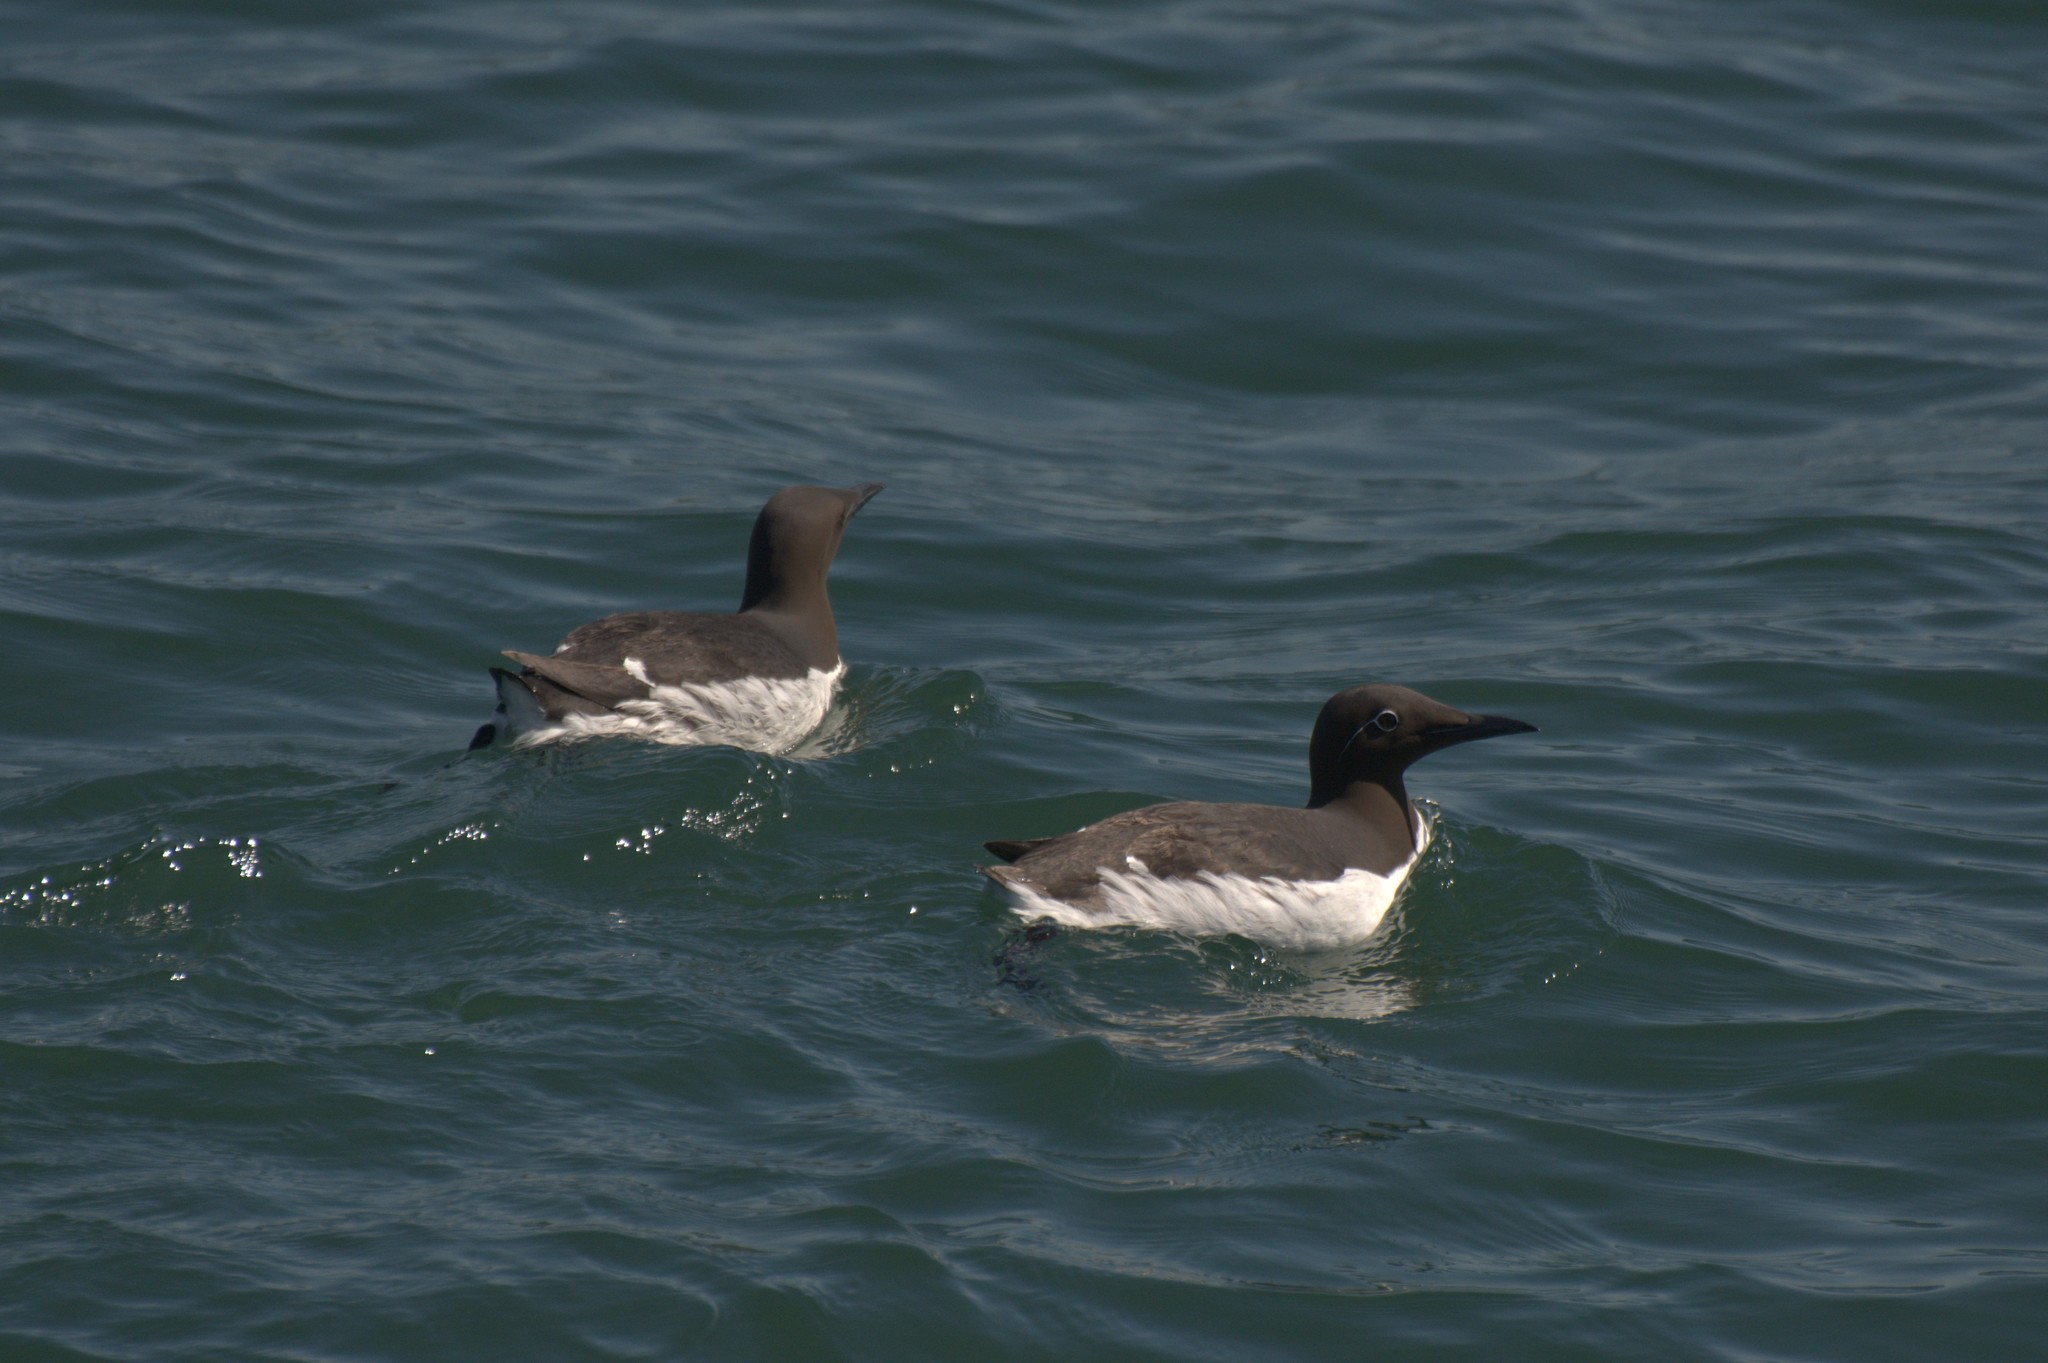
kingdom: Animalia
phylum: Chordata
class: Aves
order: Charadriiformes
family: Alcidae
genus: Uria
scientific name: Uria aalge
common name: Common murre
